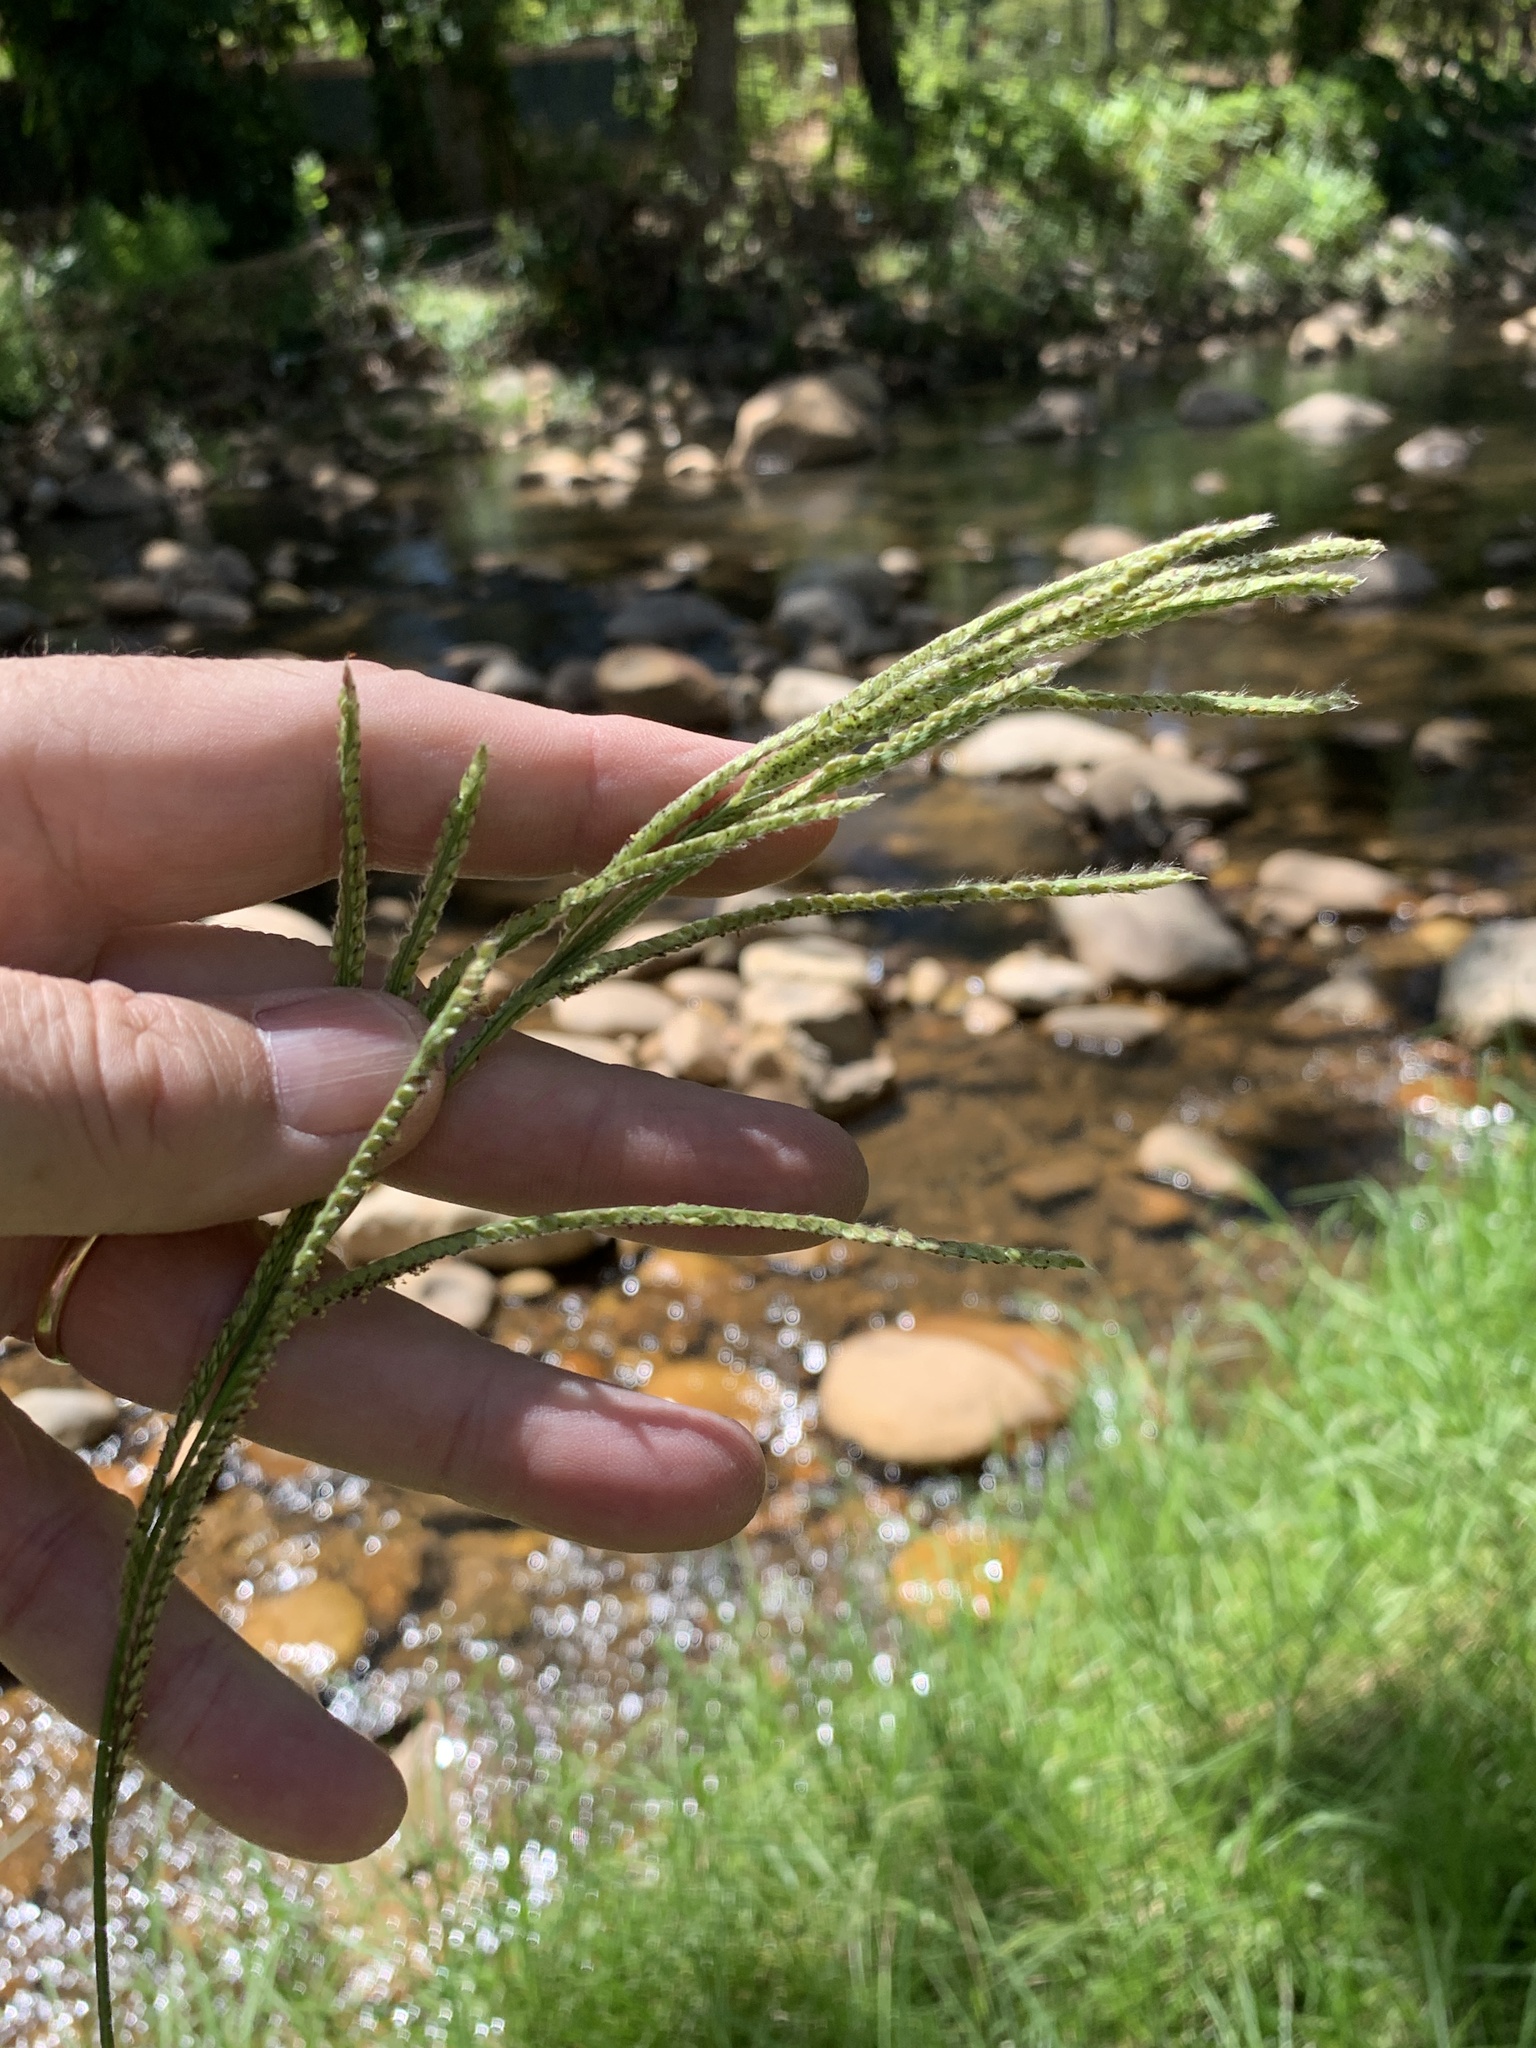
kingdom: Plantae
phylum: Tracheophyta
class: Liliopsida
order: Poales
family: Poaceae
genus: Paspalum
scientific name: Paspalum urvillei
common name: Vasey's grass
